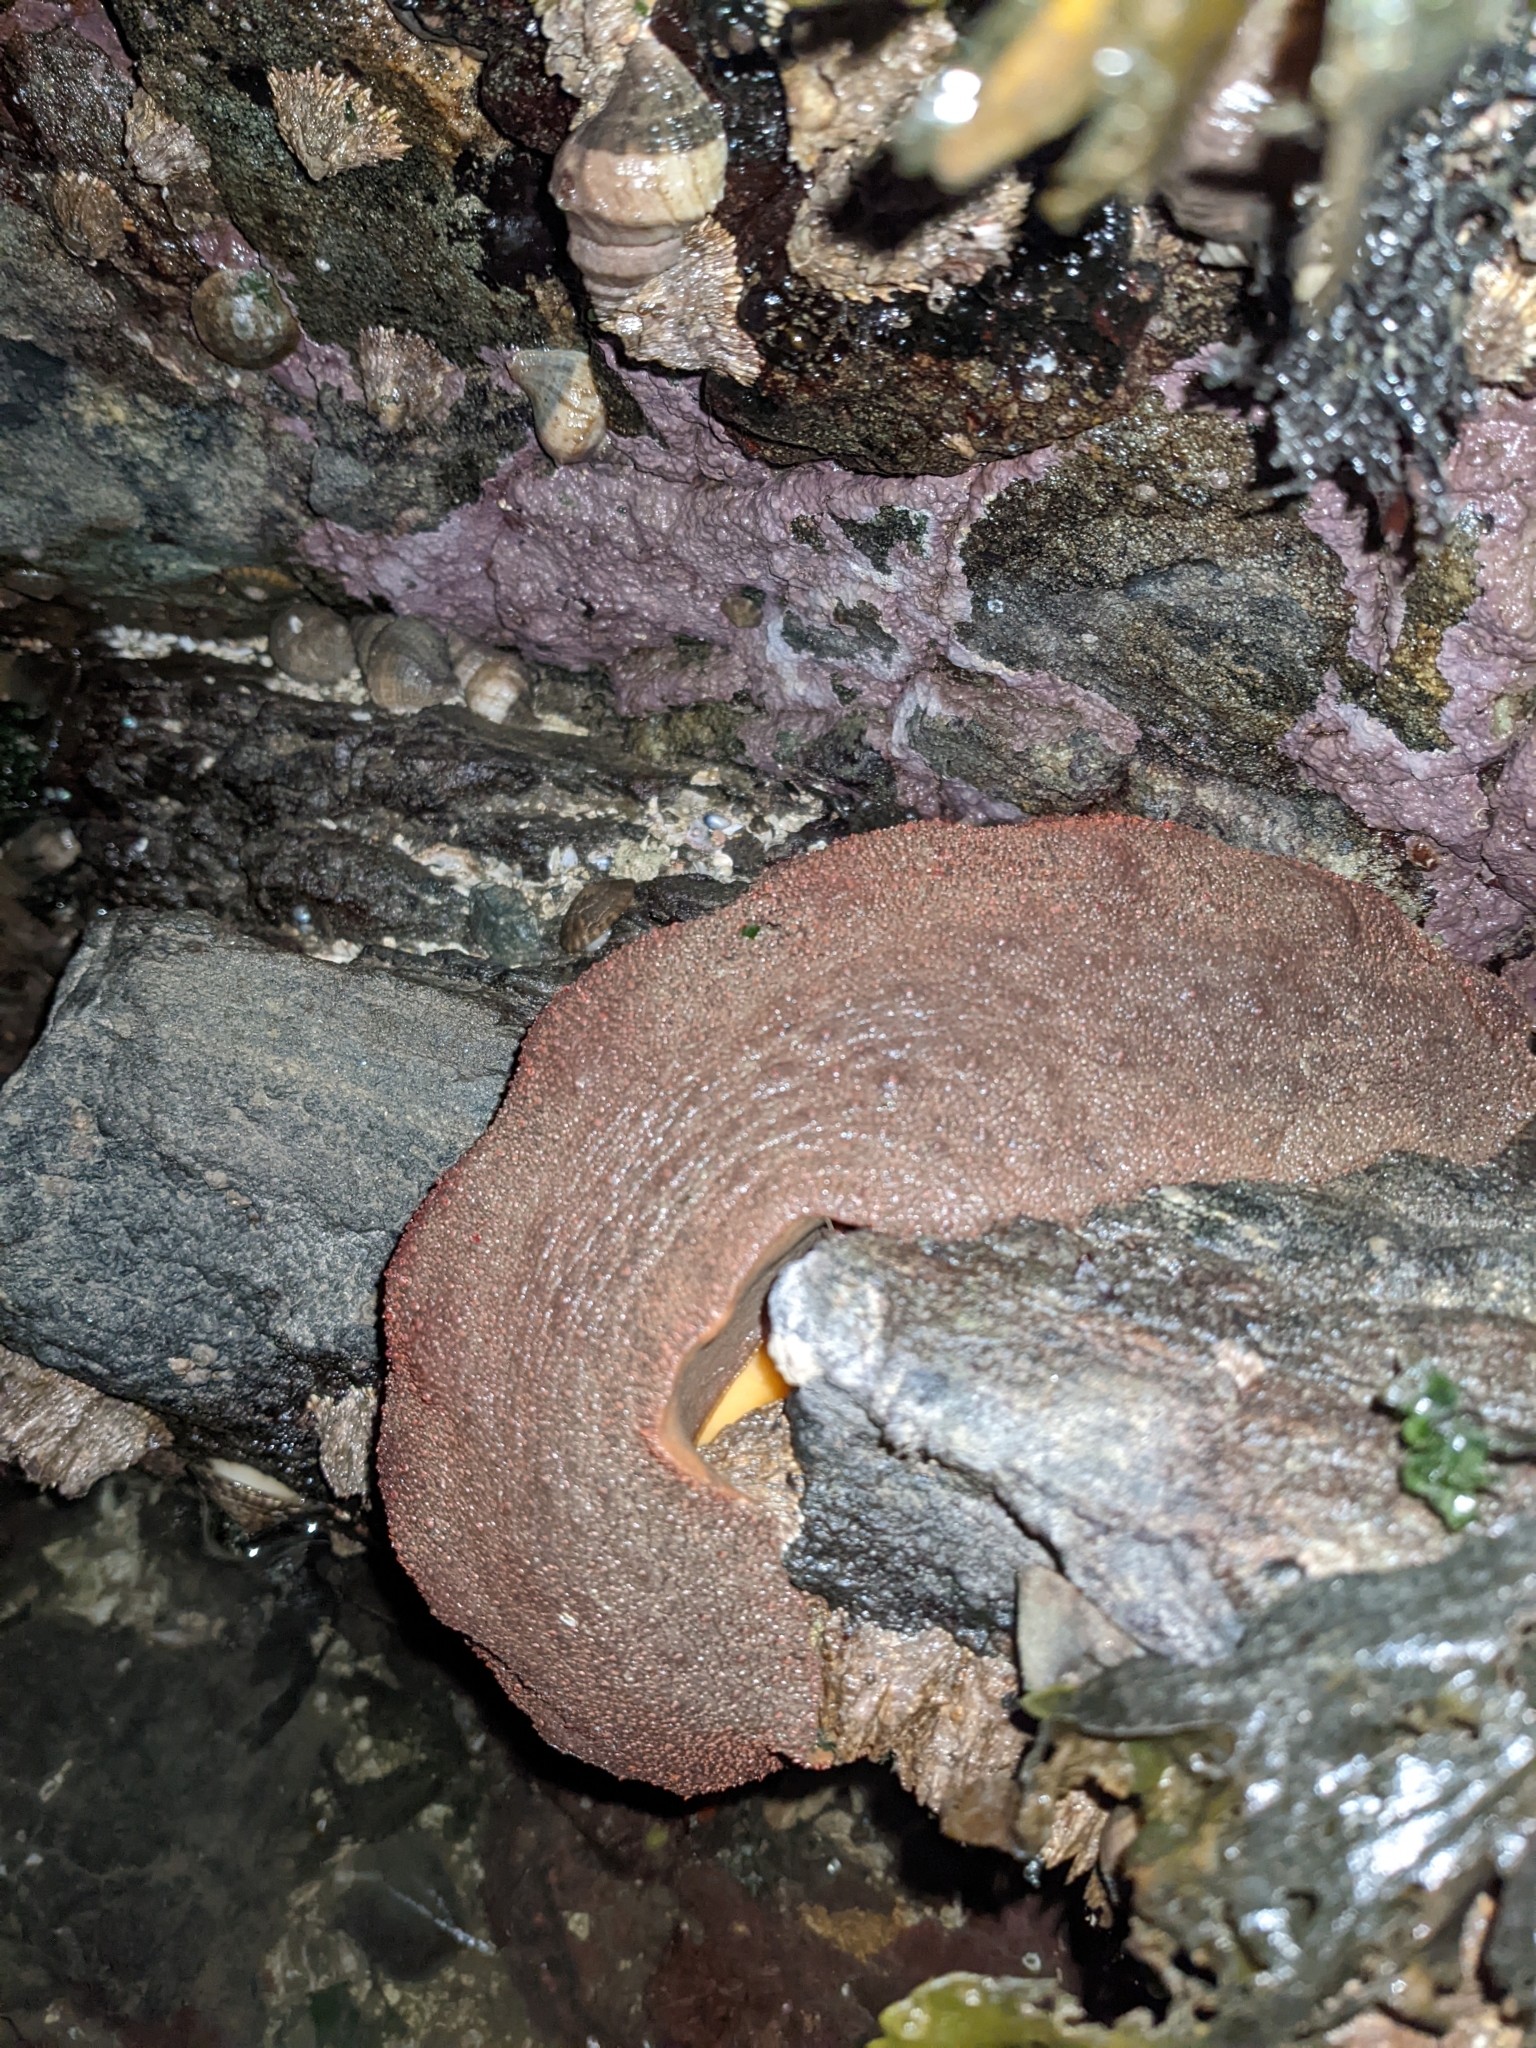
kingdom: Animalia
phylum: Mollusca
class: Polyplacophora
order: Chitonida
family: Acanthochitonidae
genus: Cryptochiton
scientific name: Cryptochiton stelleri
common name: Giant pacific chiton
